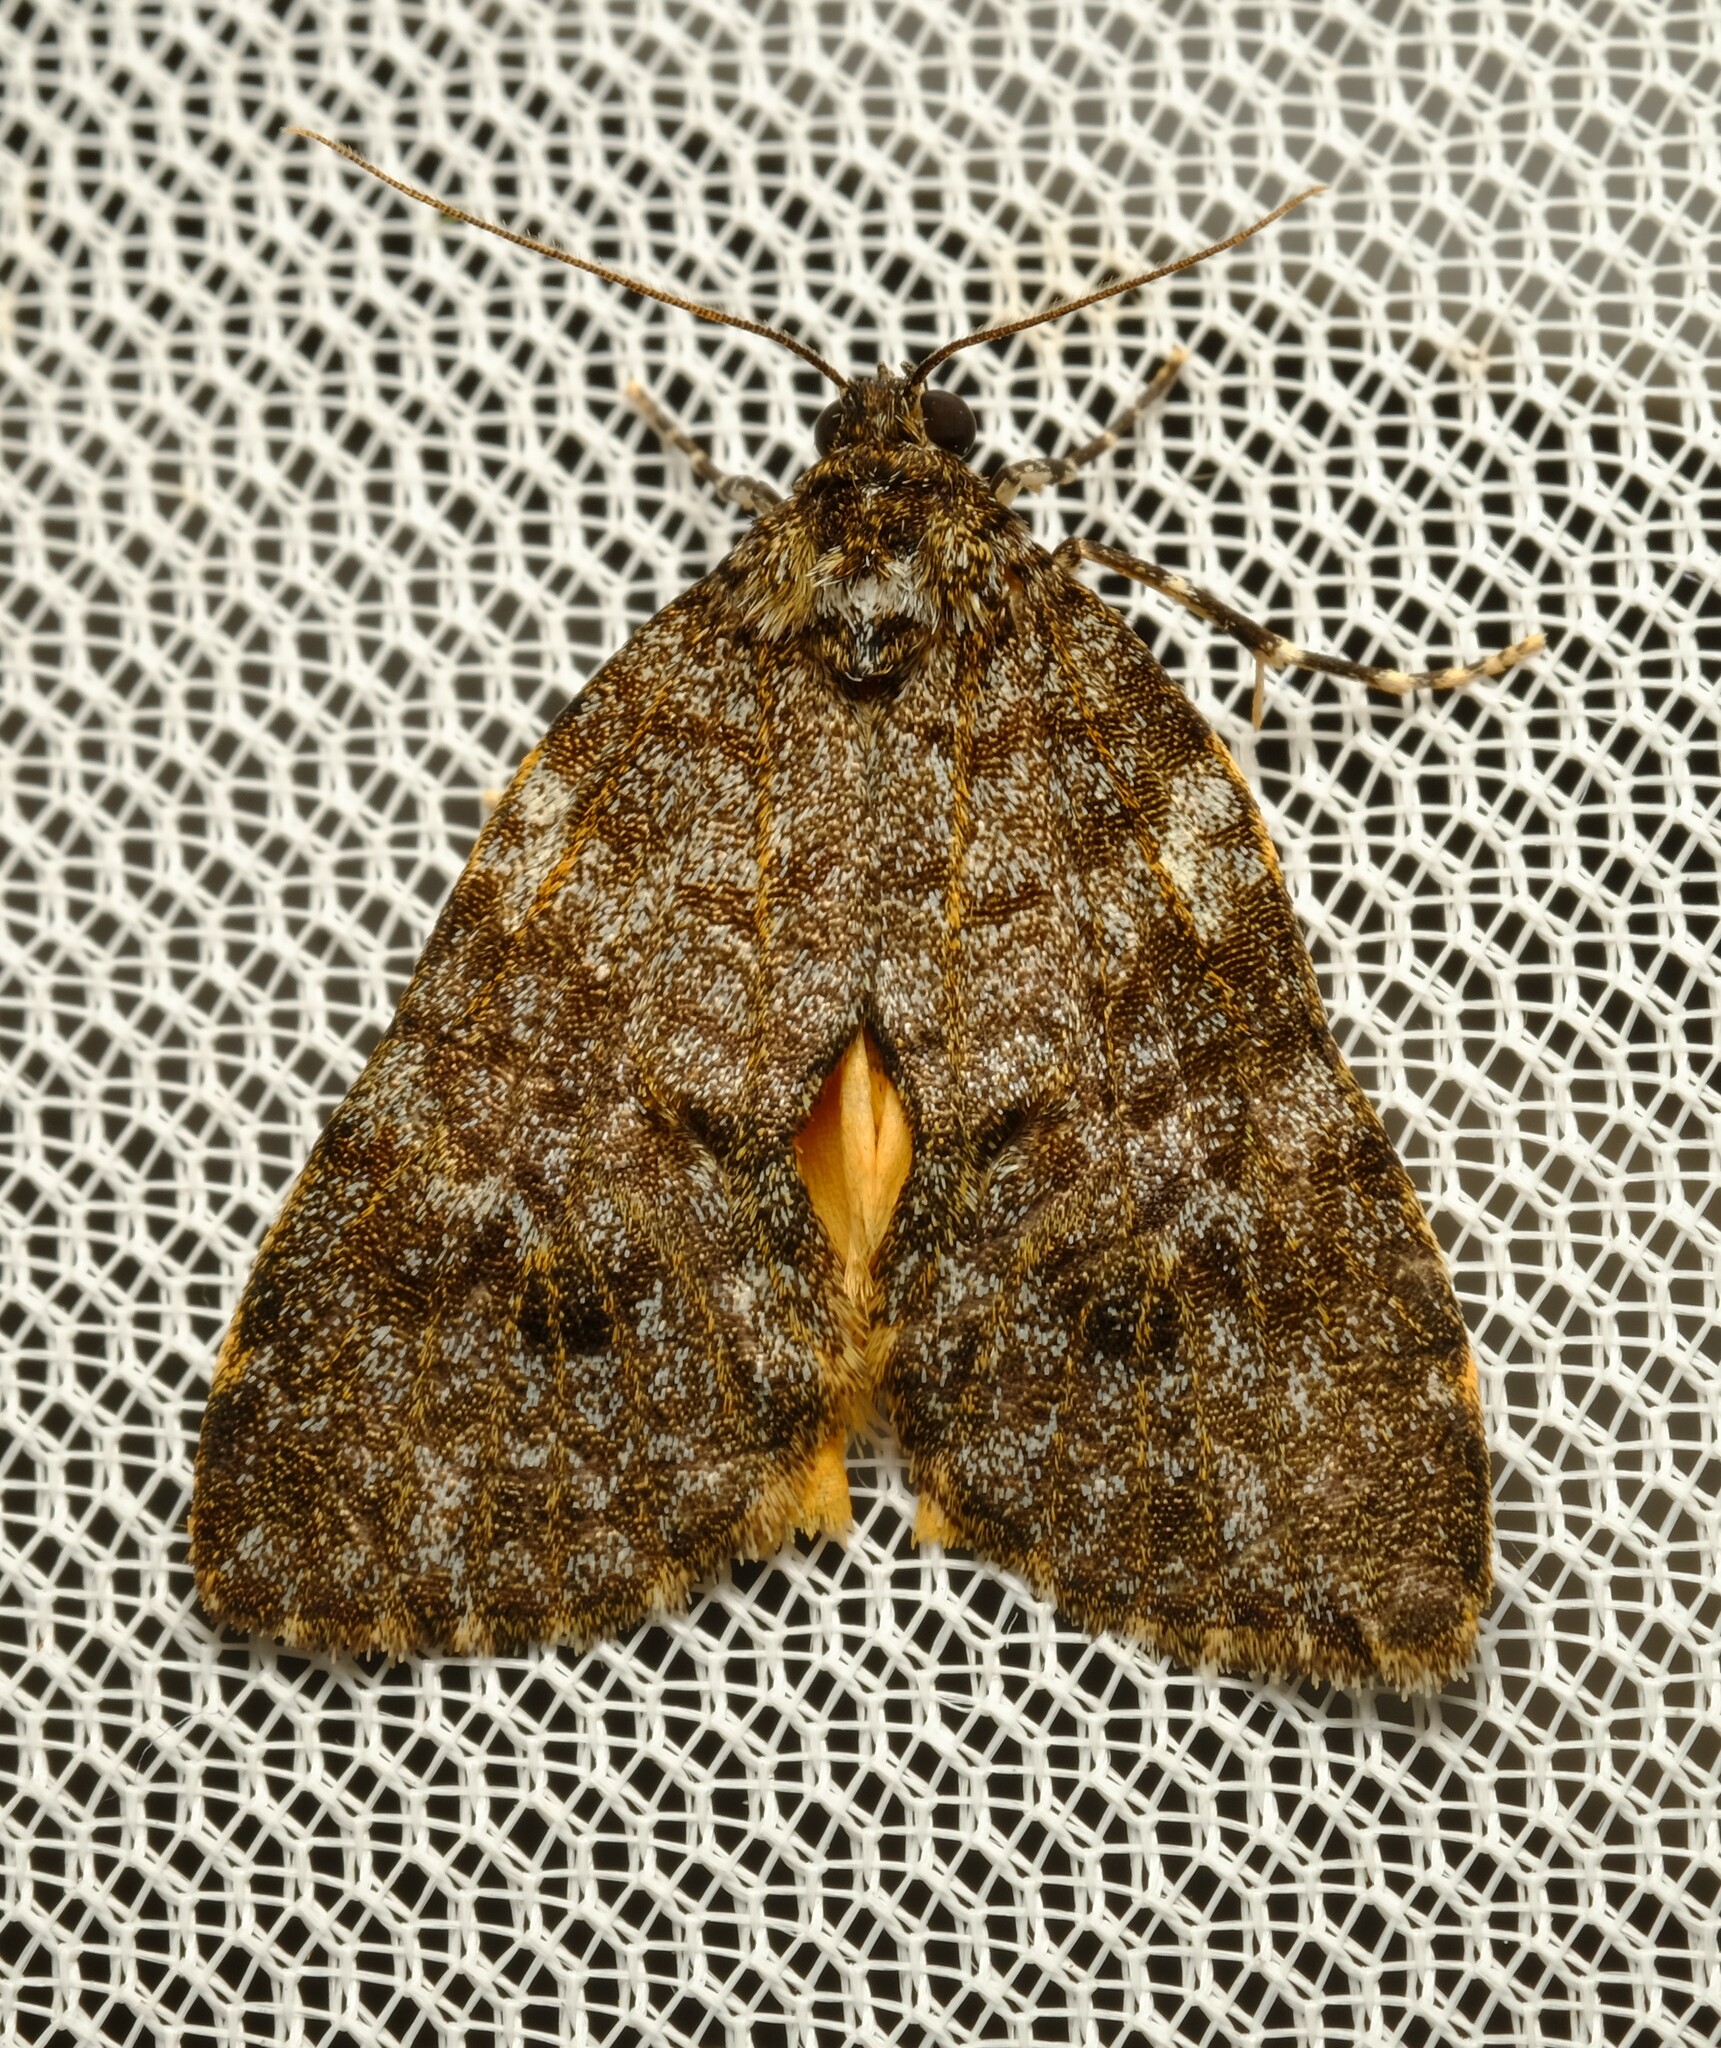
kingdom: Animalia
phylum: Arthropoda
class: Insecta
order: Lepidoptera
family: Erebidae
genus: Parelictis
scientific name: Parelictis saleuta
